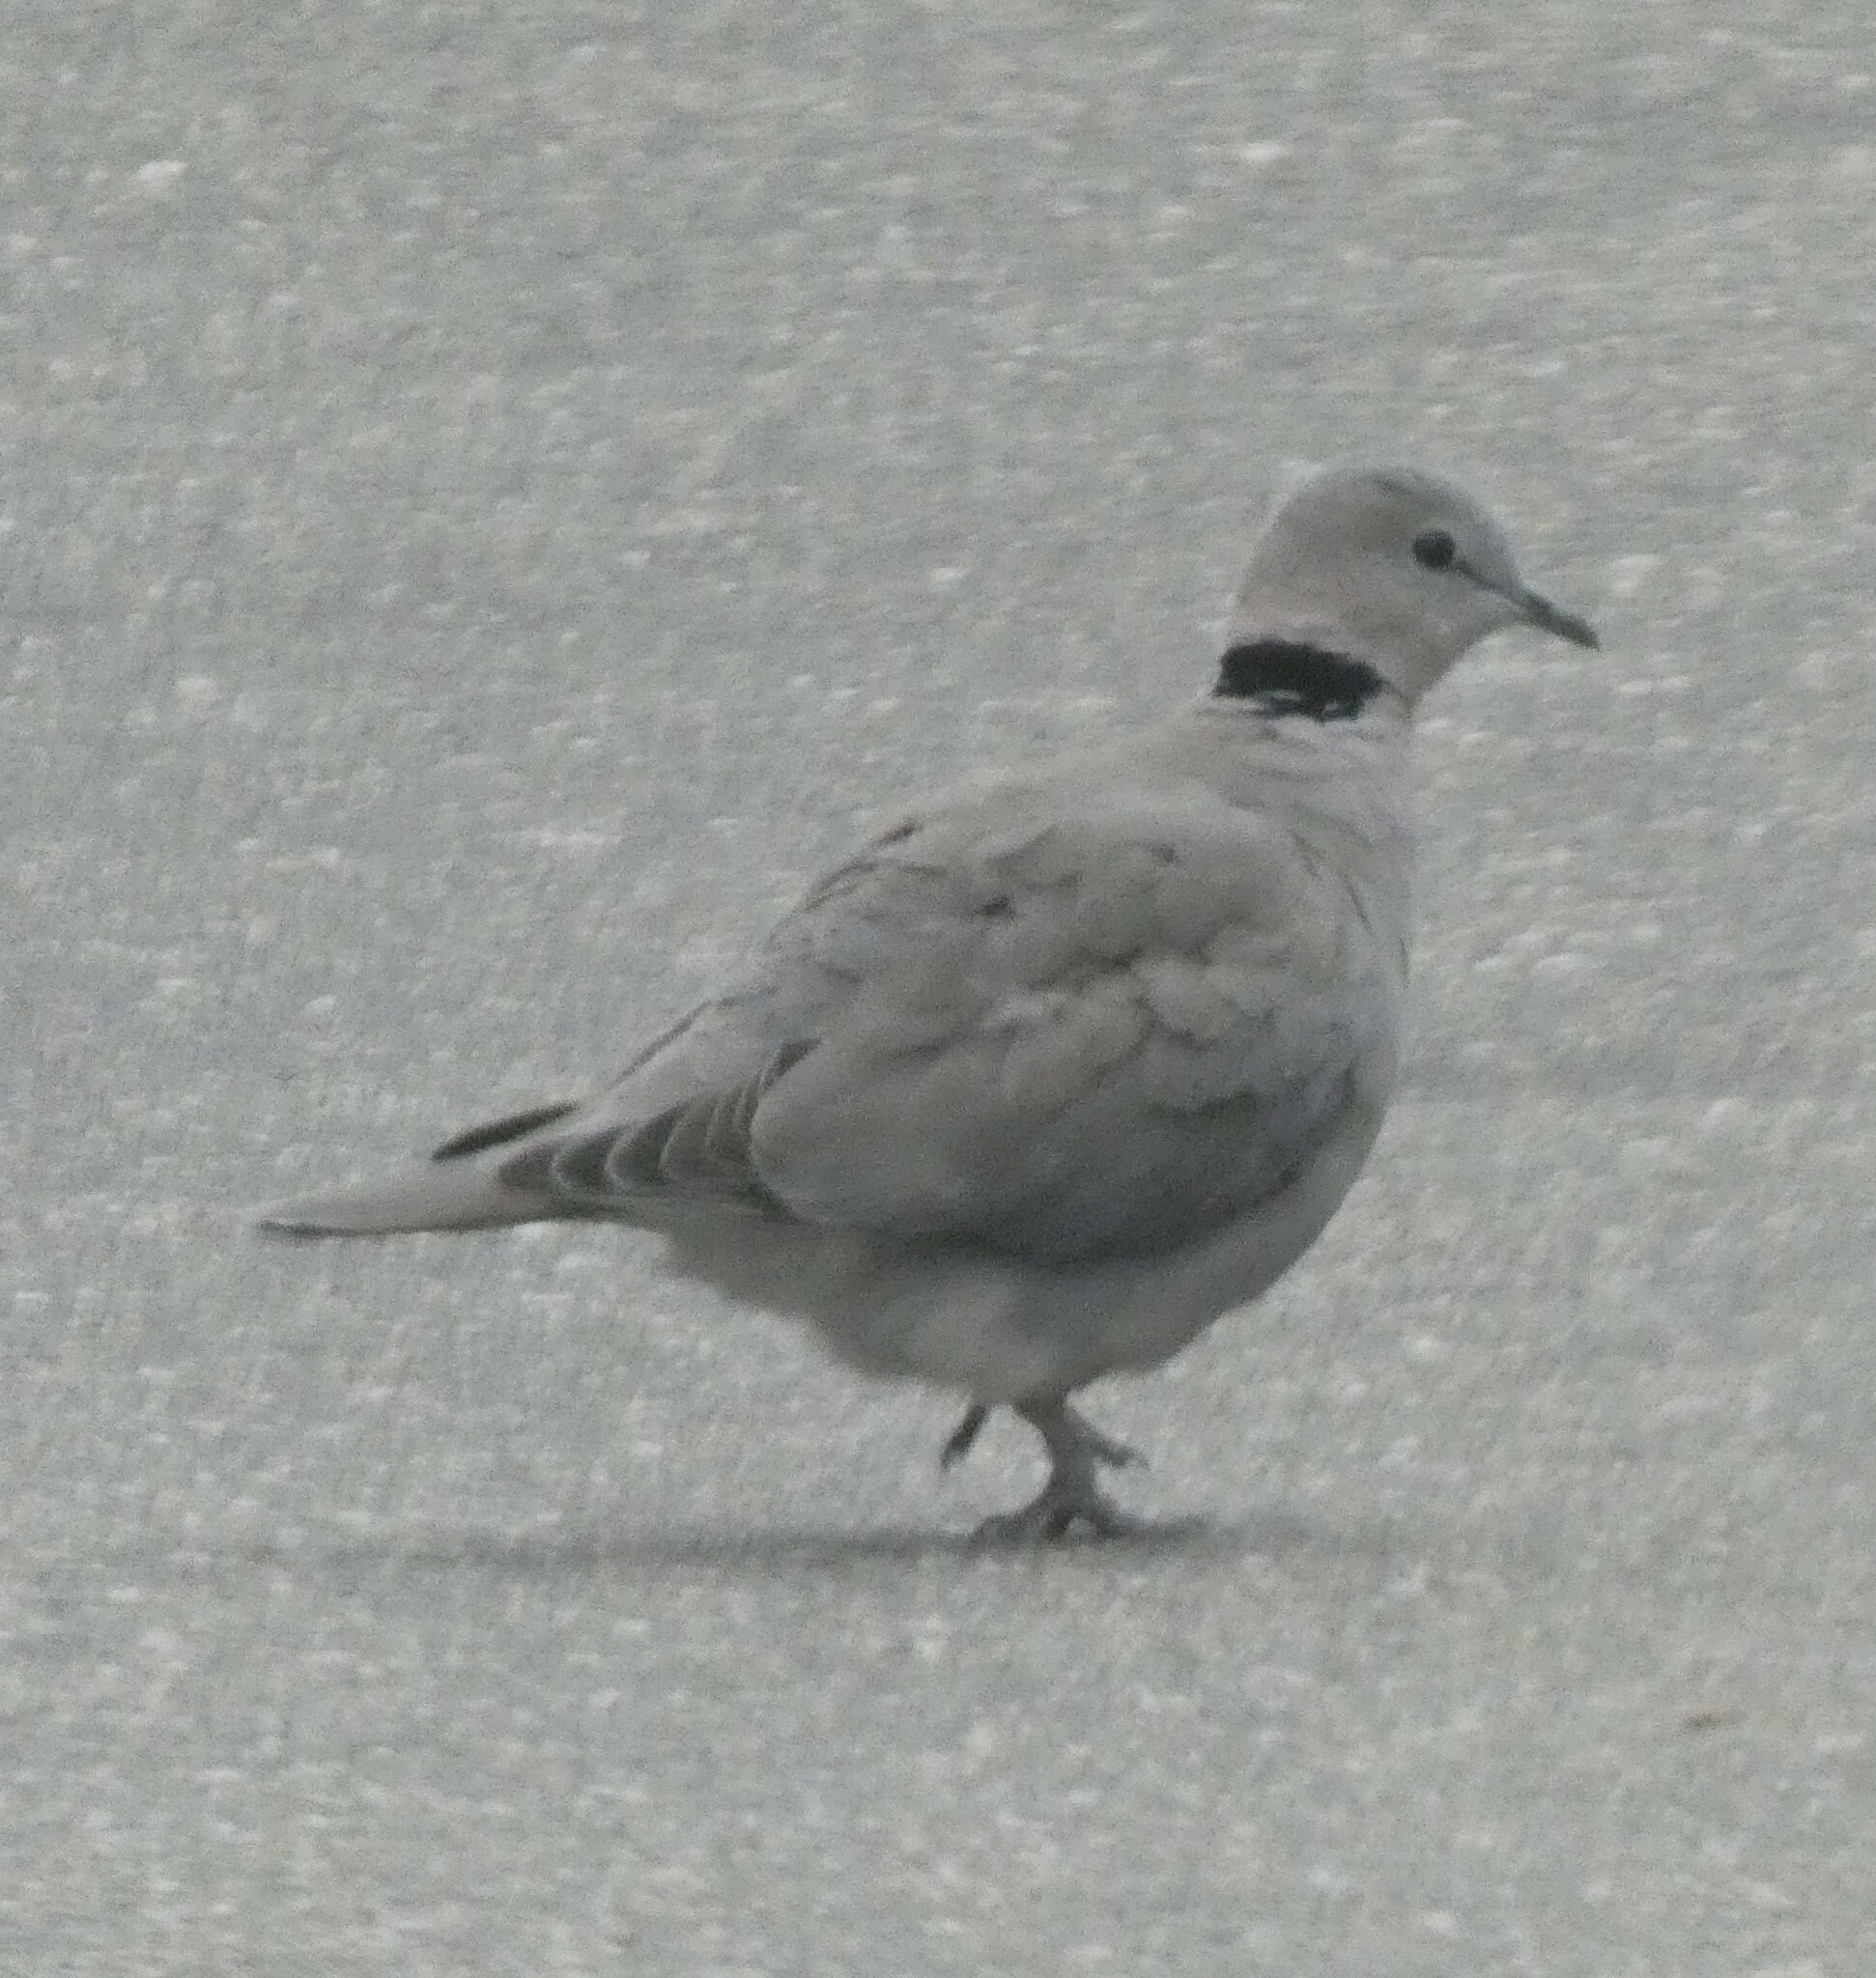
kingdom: Animalia
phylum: Chordata
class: Aves
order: Columbiformes
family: Columbidae
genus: Streptopelia
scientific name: Streptopelia capicola
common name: Ring-necked dove
